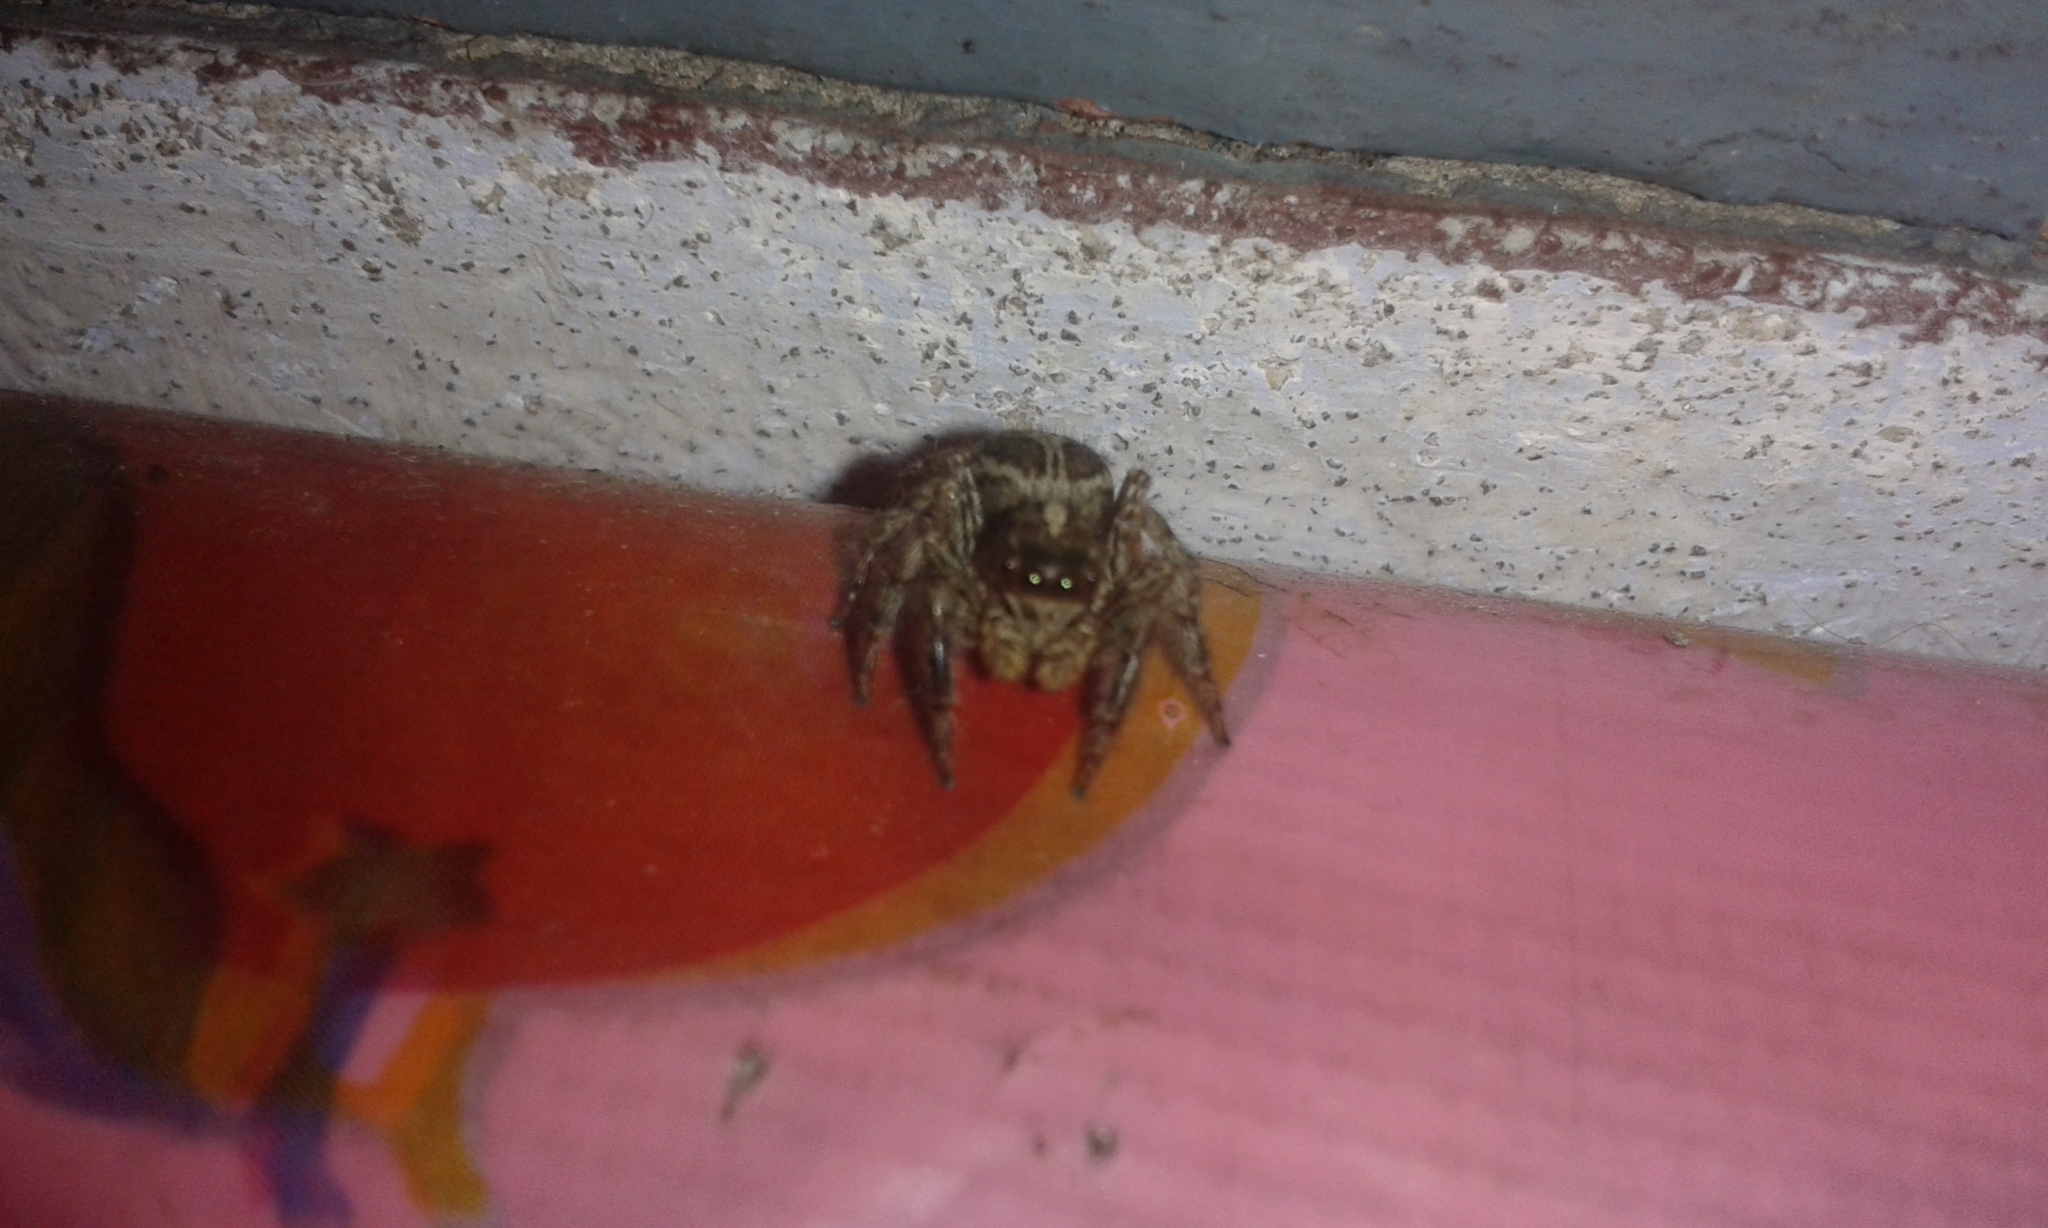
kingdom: Animalia
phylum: Arthropoda
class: Arachnida
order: Araneae
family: Salticidae
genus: Plexippus
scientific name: Plexippus paykulli
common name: Pantropical jumper
